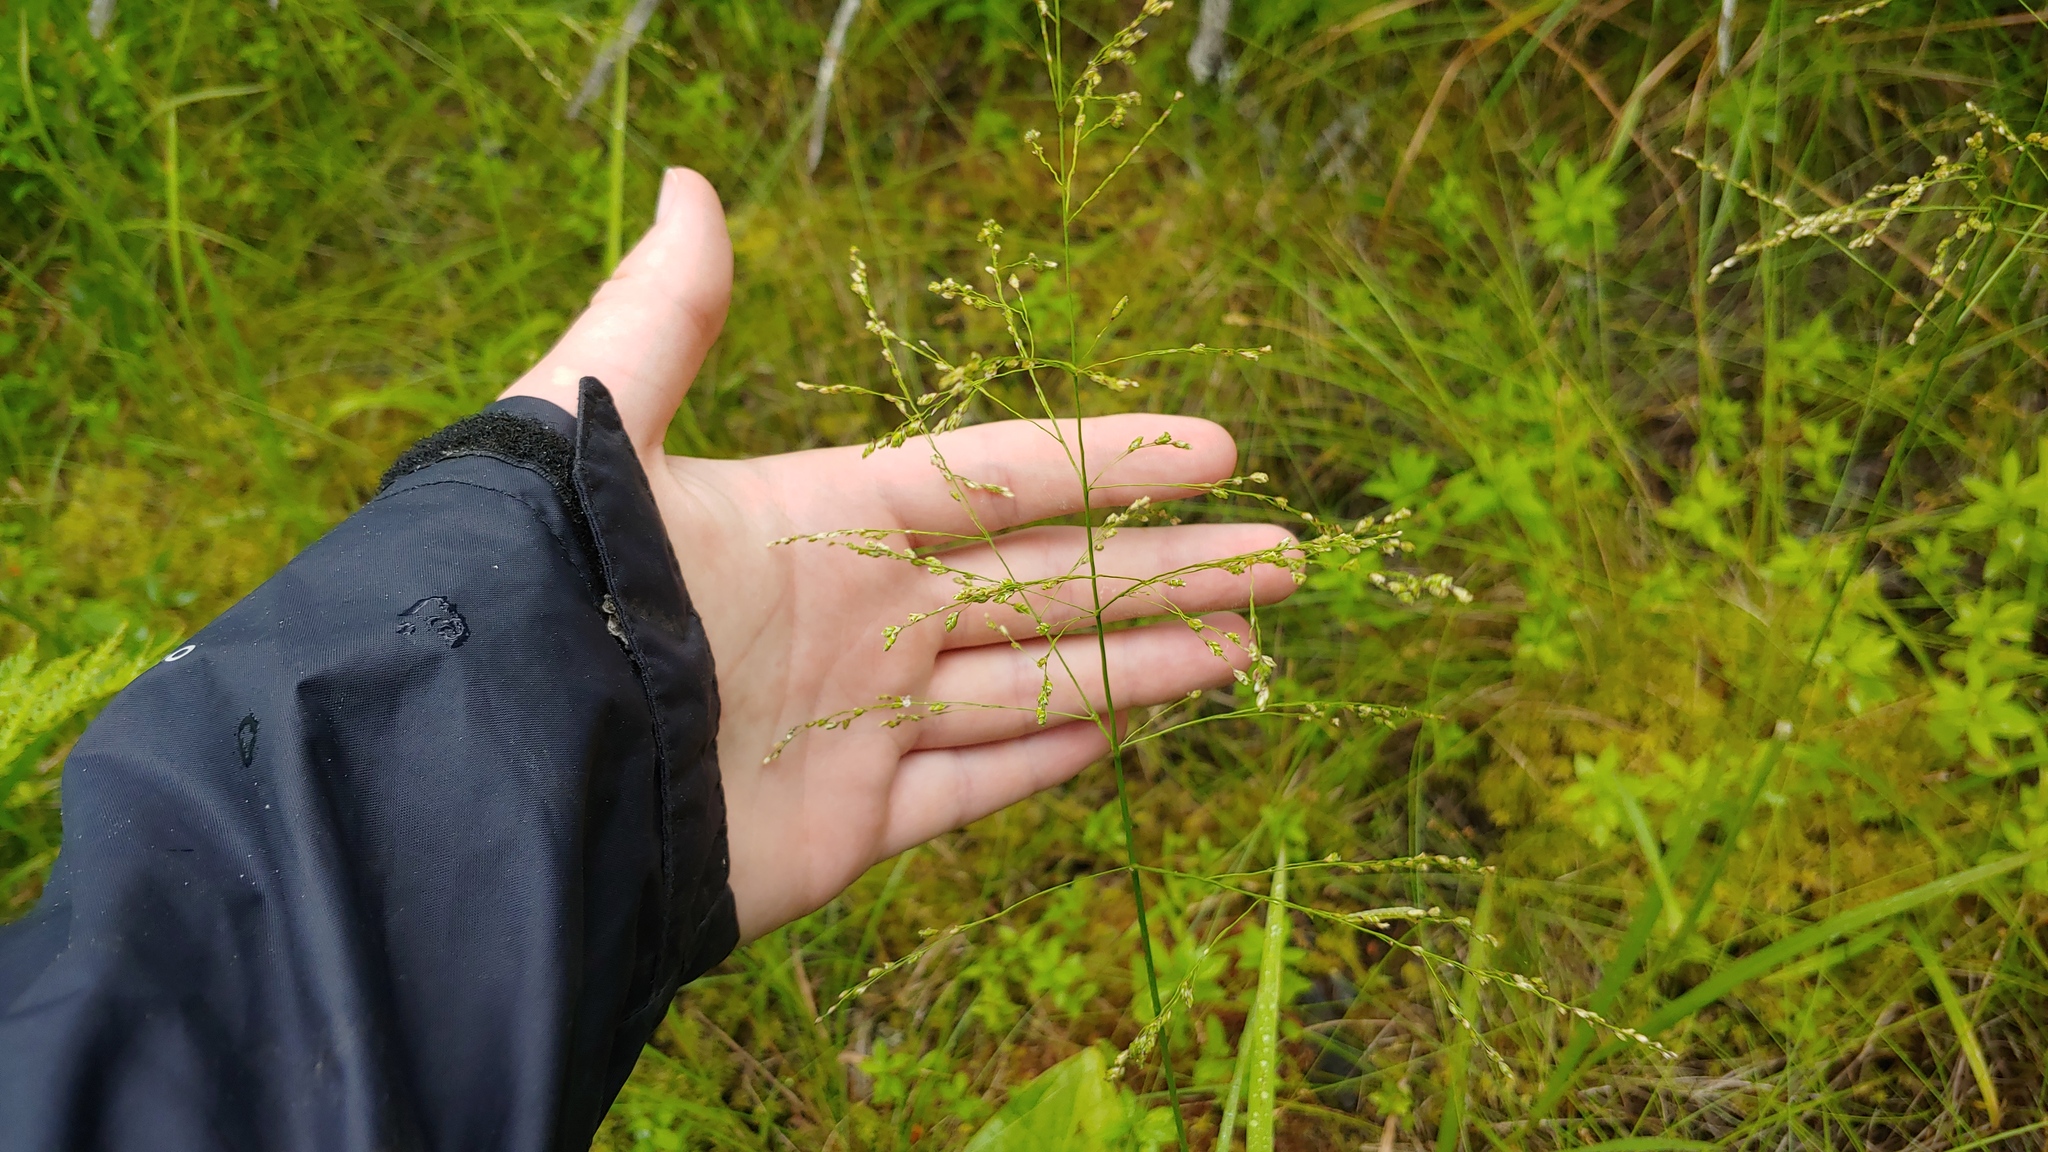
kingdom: Plantae
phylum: Tracheophyta
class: Liliopsida
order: Poales
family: Poaceae
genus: Glyceria
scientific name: Glyceria canadensis
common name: Canada mannagrass
